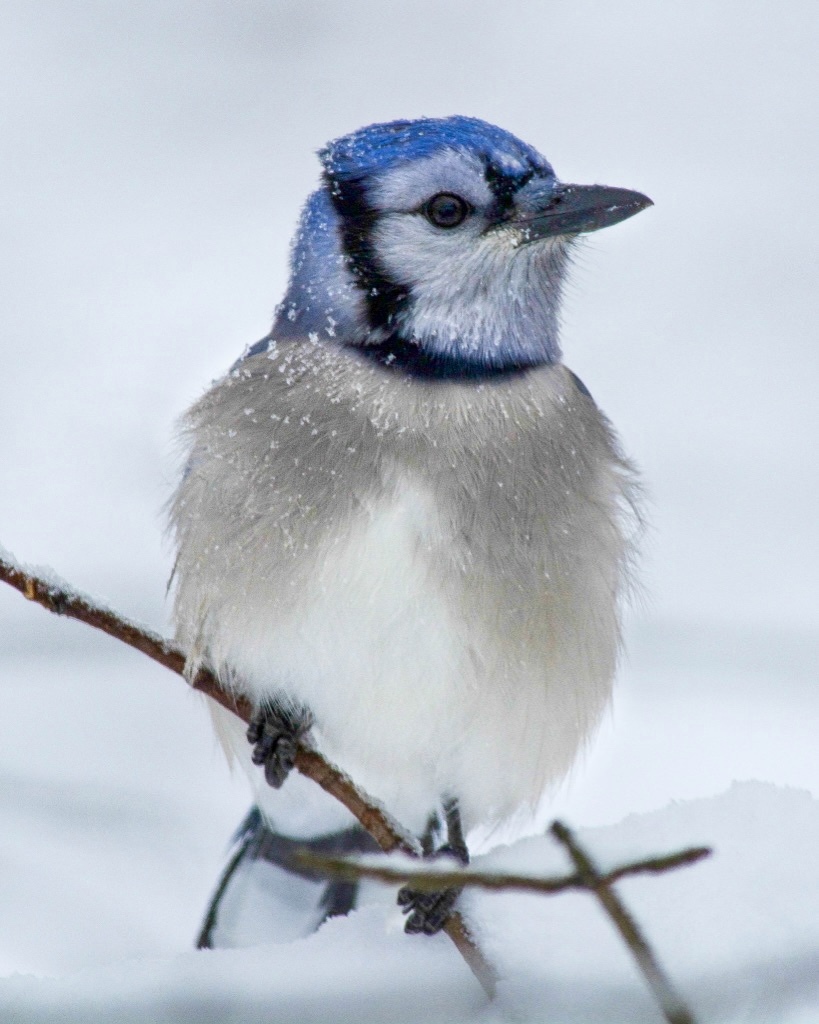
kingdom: Animalia
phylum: Chordata
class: Aves
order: Passeriformes
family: Corvidae
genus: Cyanocitta
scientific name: Cyanocitta cristata
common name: Blue jay
